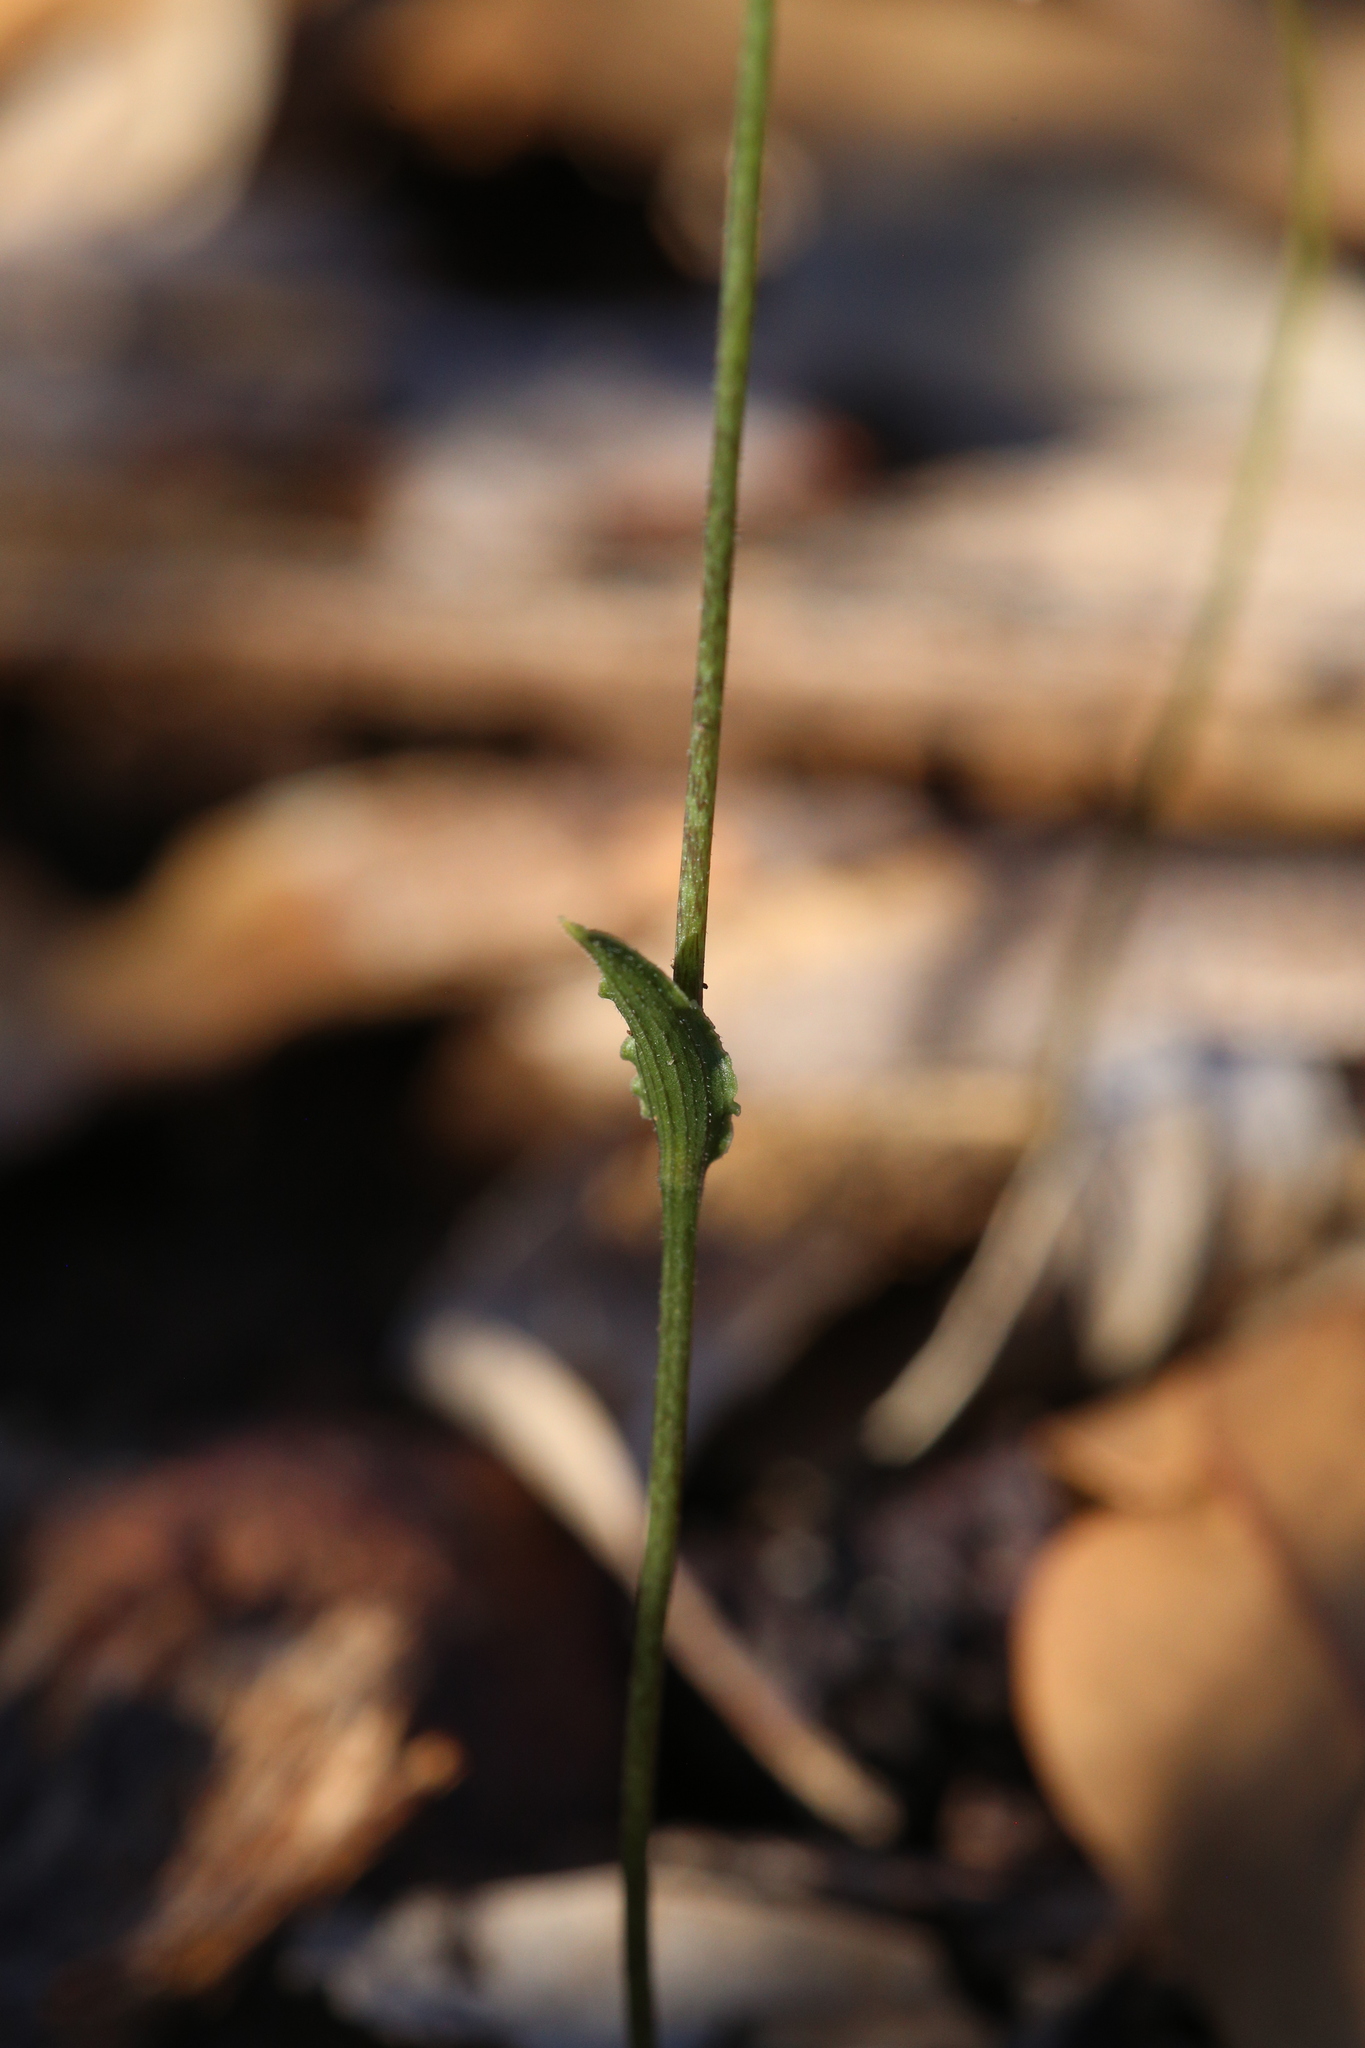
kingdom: Plantae
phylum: Tracheophyta
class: Liliopsida
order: Asparagales
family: Orchidaceae
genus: Eriochilus
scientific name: Eriochilus dilatatus
